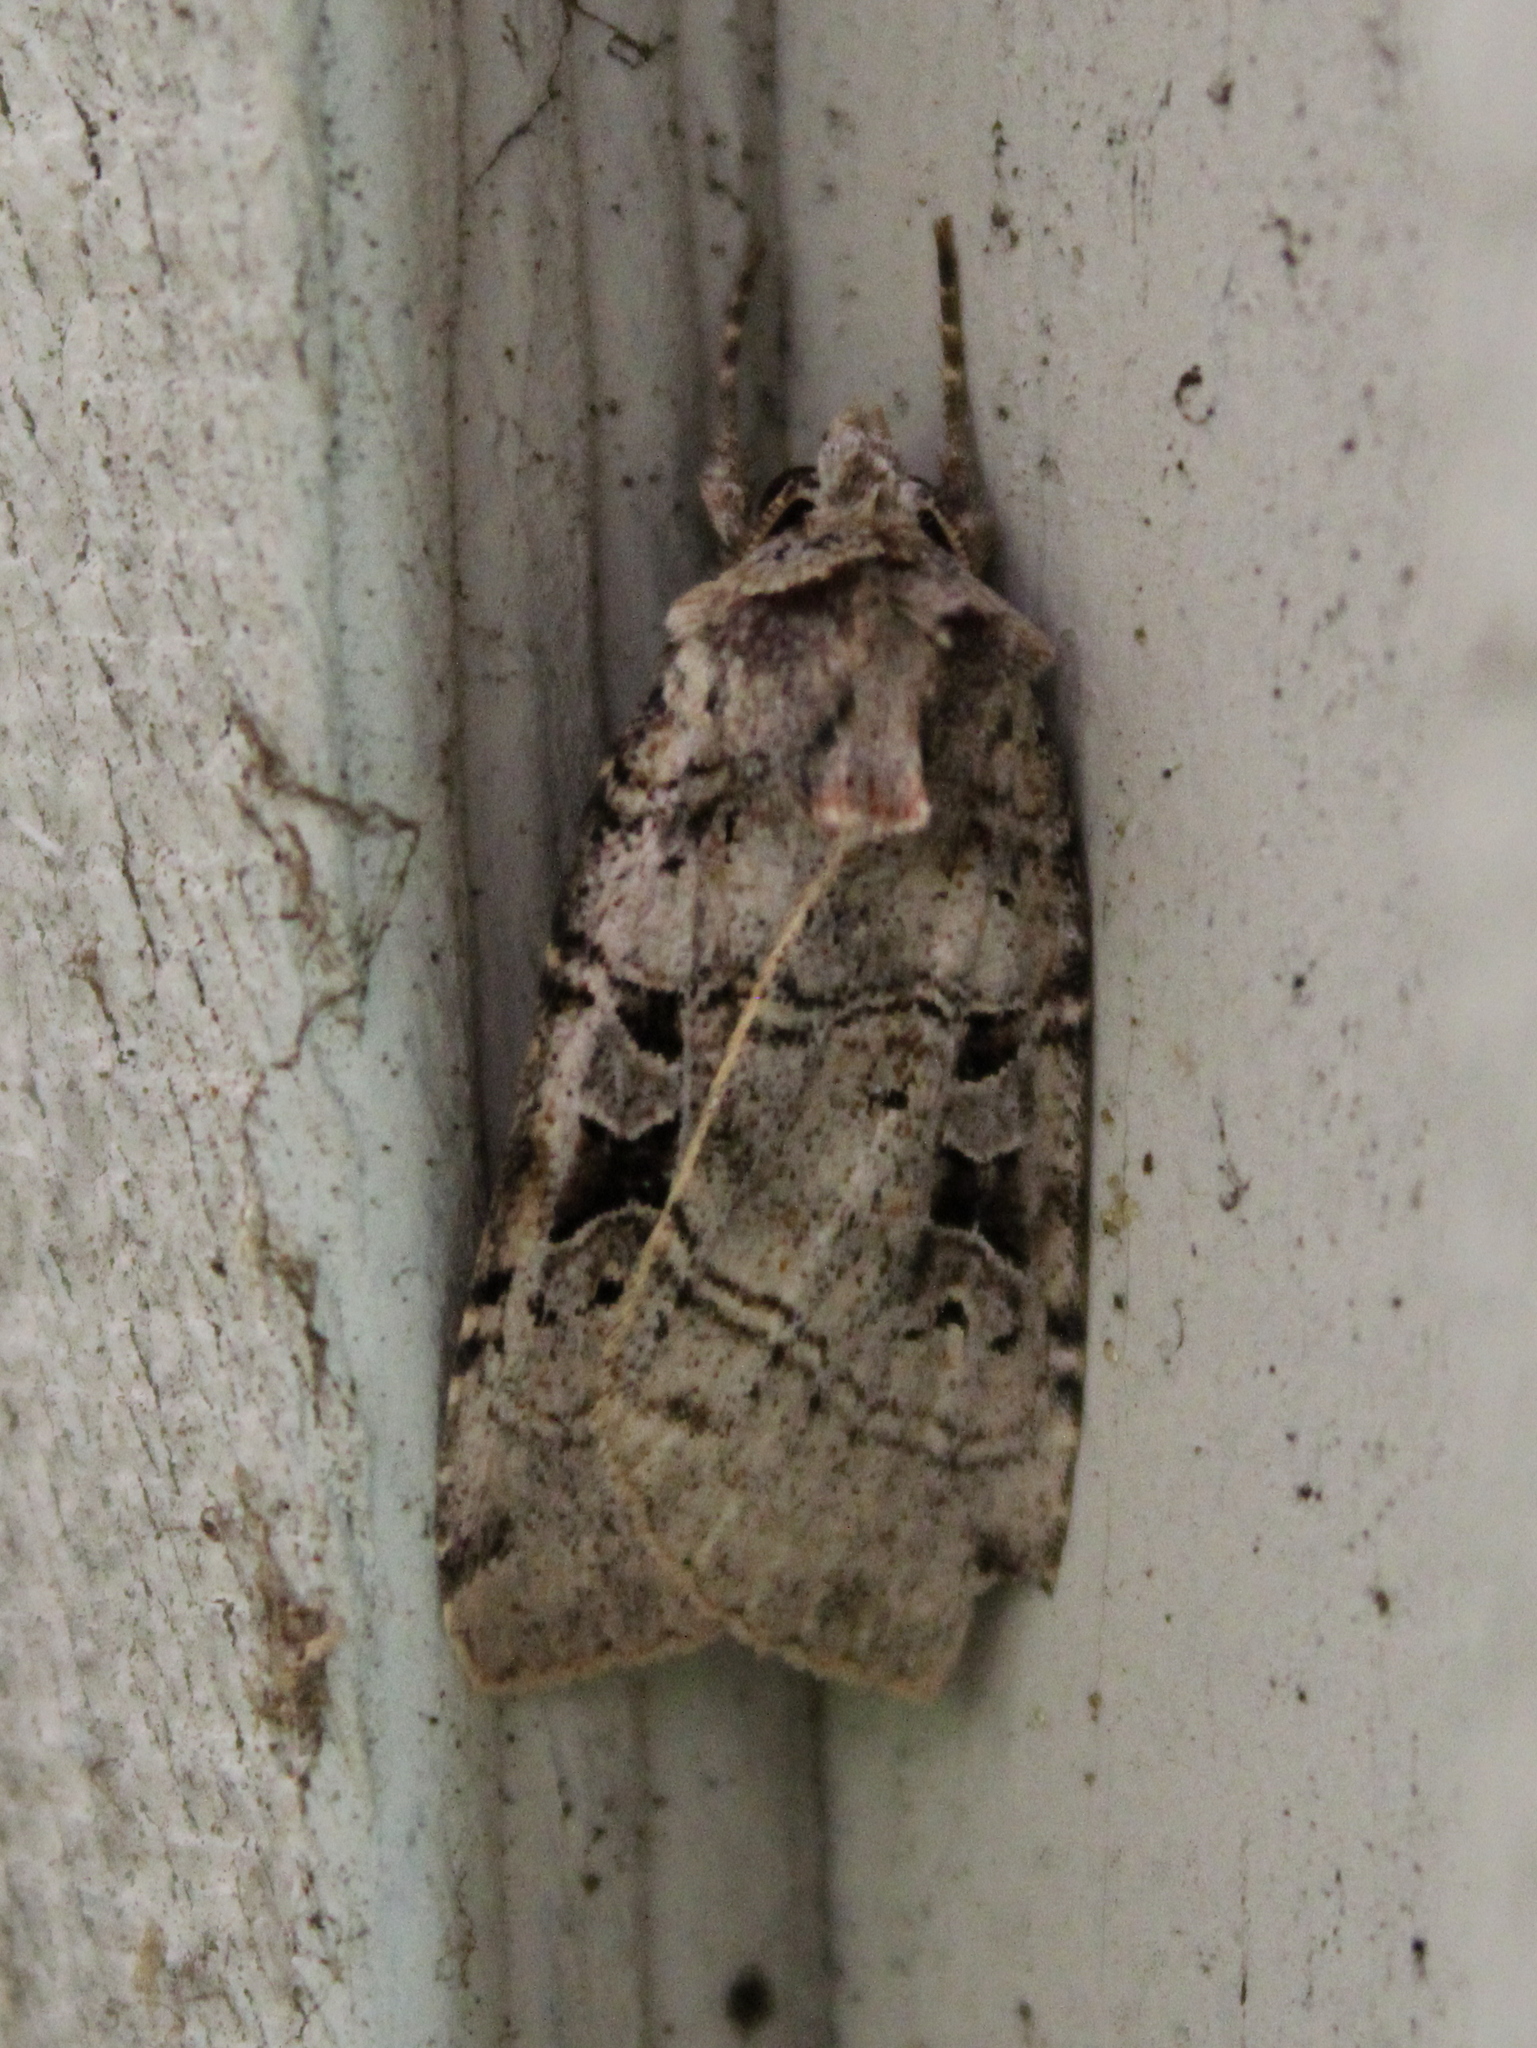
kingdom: Animalia
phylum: Arthropoda
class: Insecta
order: Lepidoptera
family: Noctuidae
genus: Xestia
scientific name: Xestia normaniana
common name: Norman's dart moth
